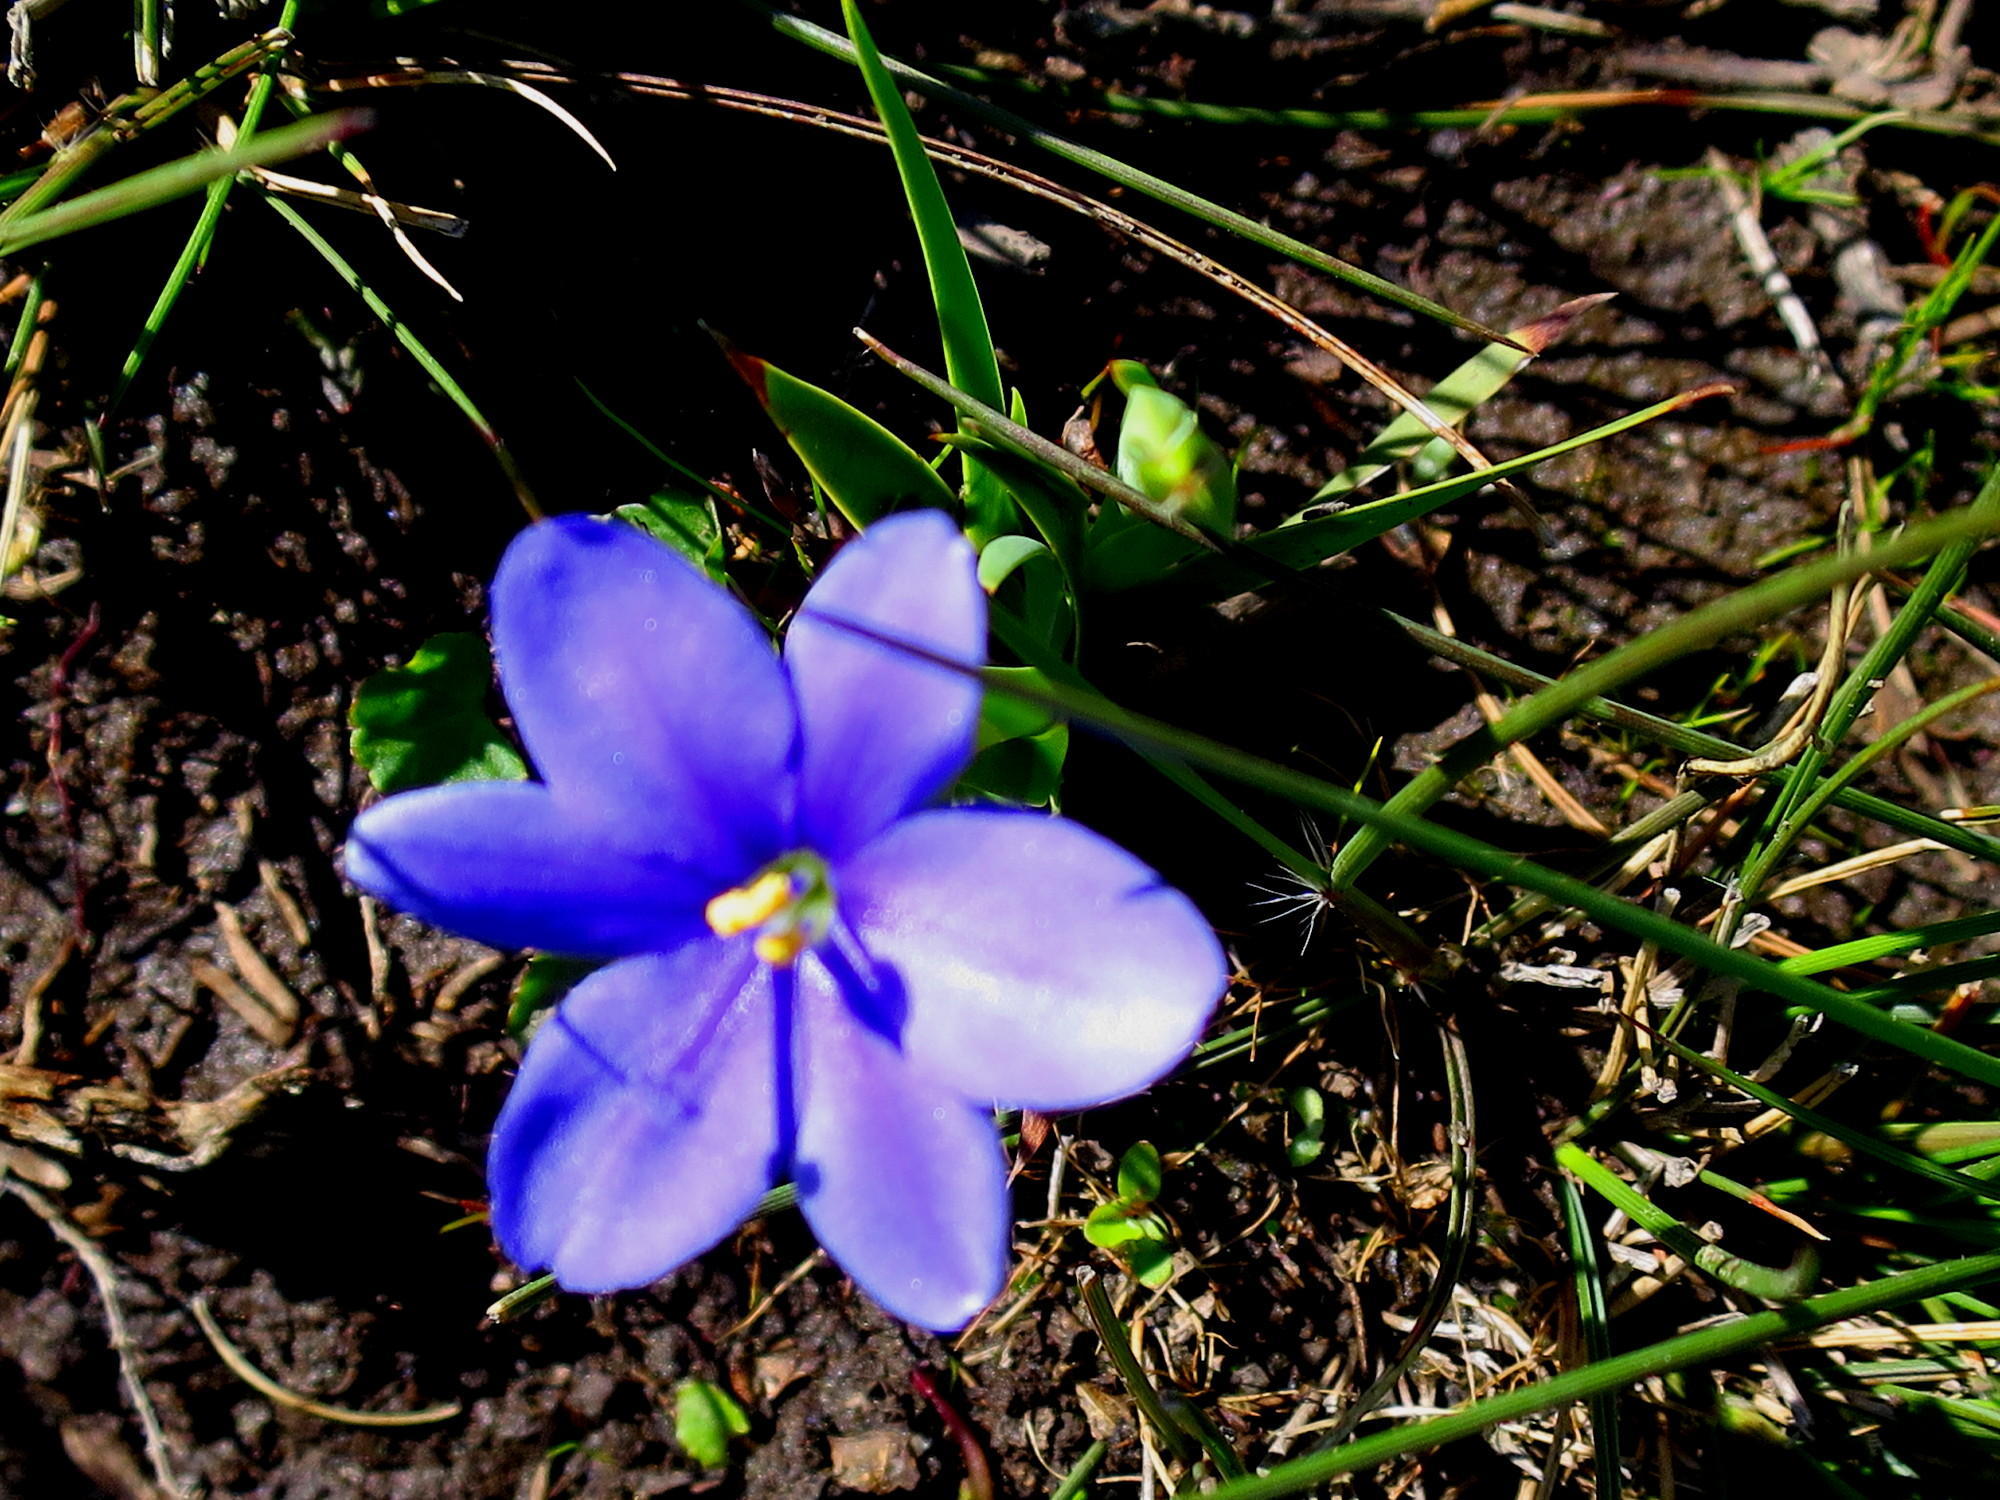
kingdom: Plantae
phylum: Tracheophyta
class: Liliopsida
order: Asparagales
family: Iridaceae
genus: Aristea
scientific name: Aristea nana
